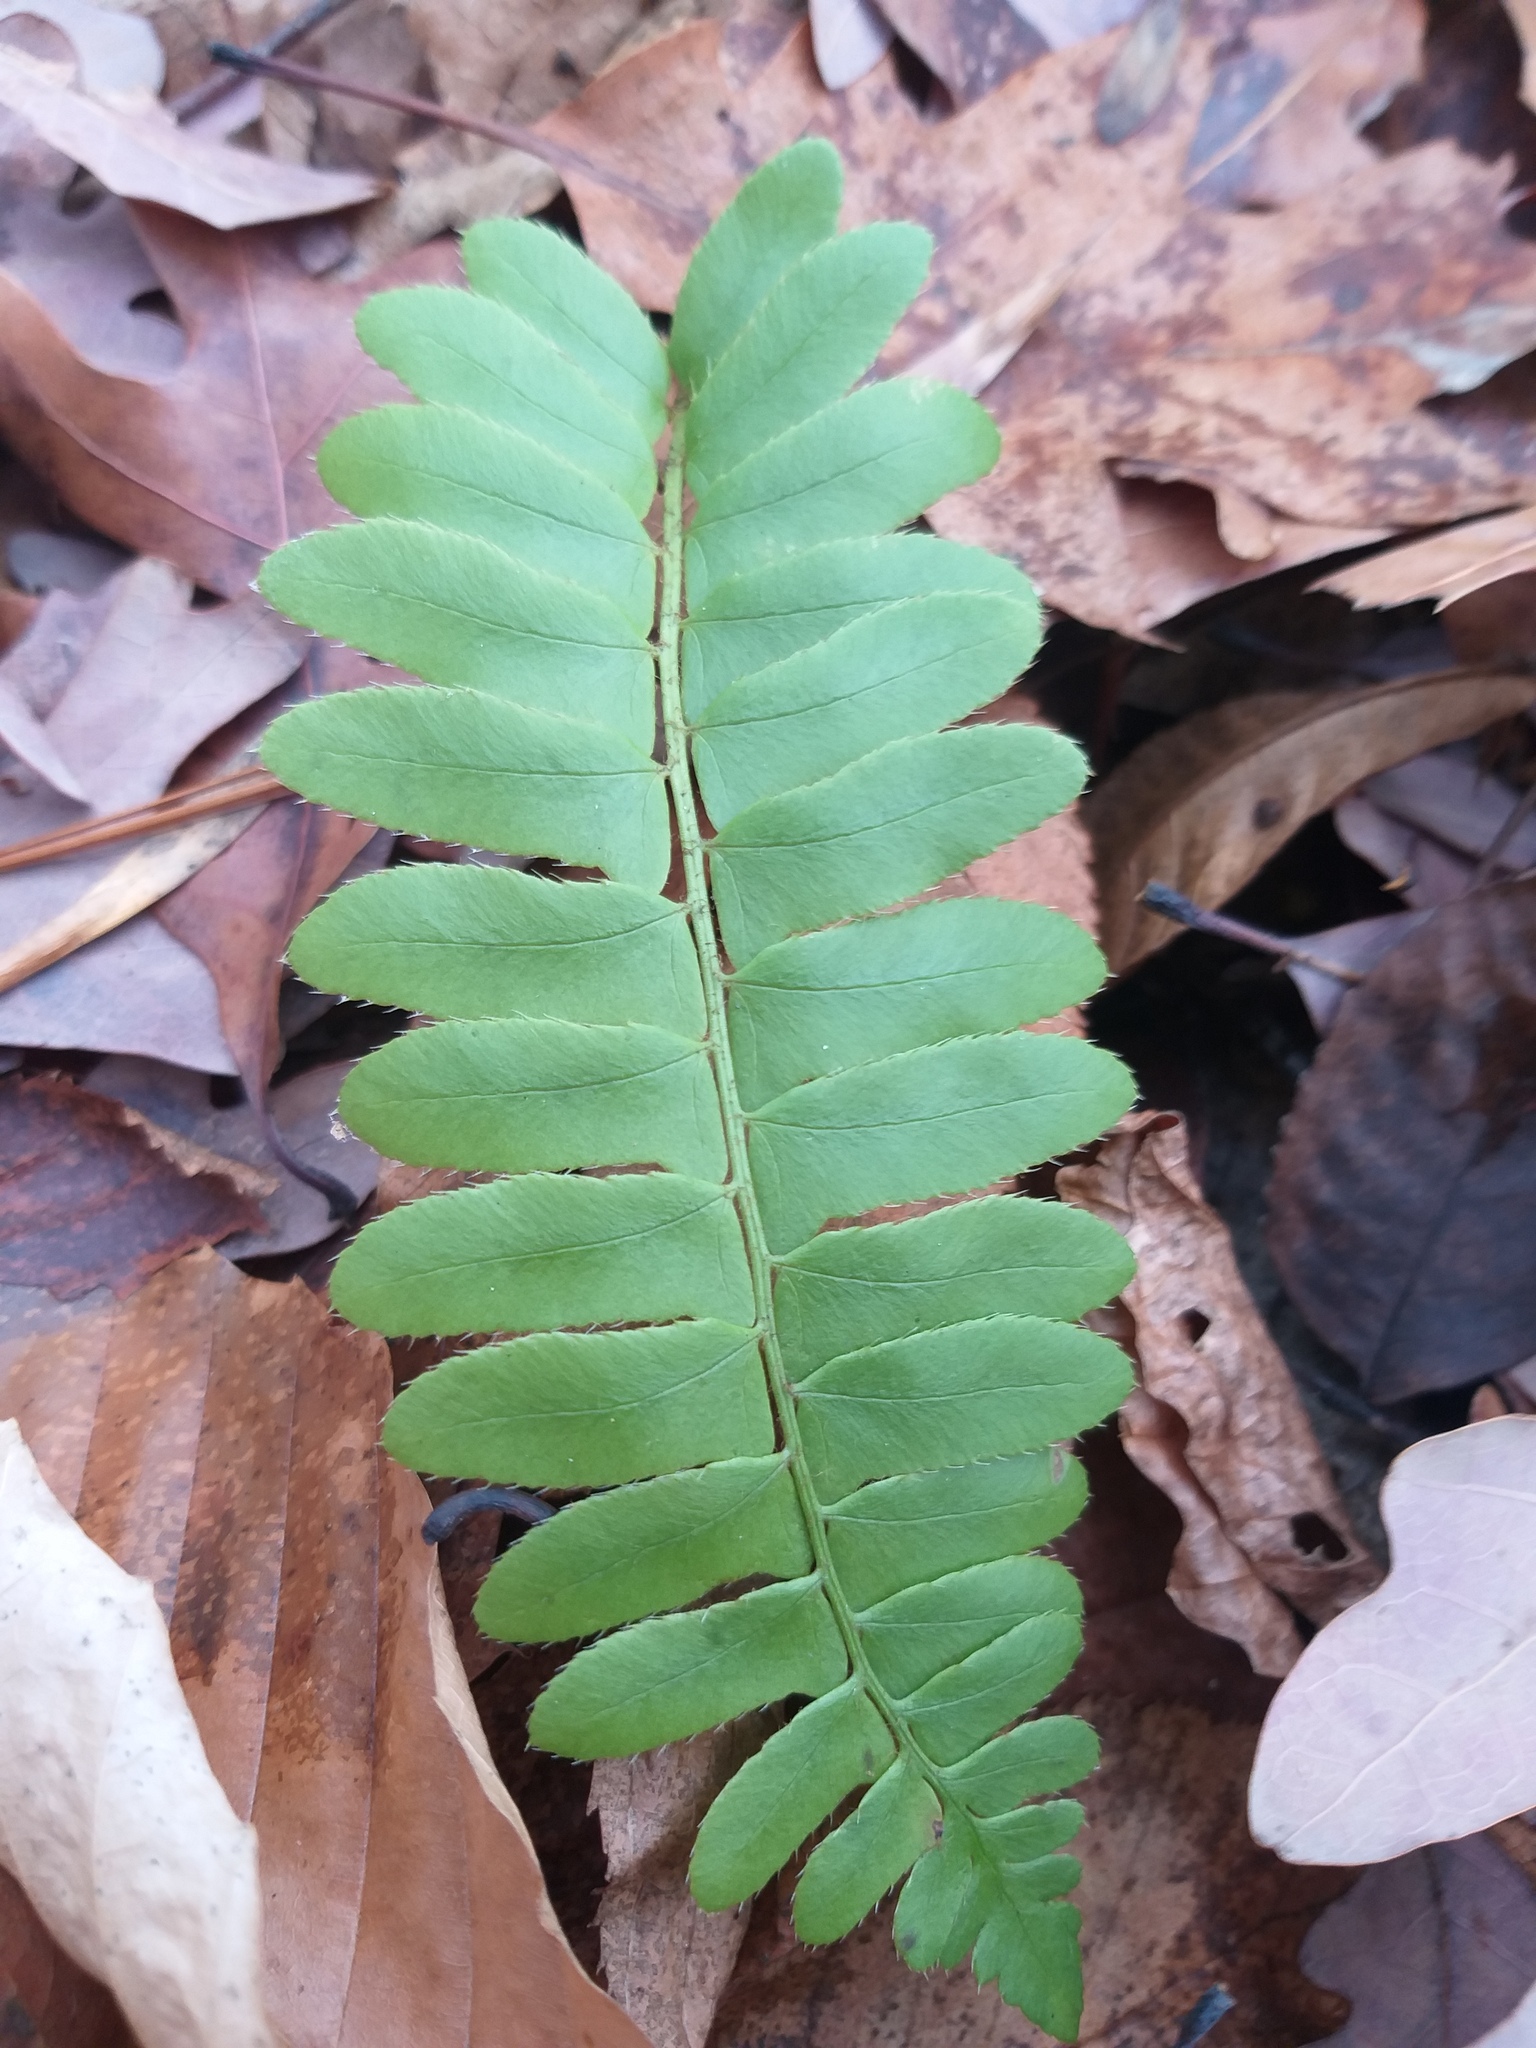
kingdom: Plantae
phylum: Tracheophyta
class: Polypodiopsida
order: Polypodiales
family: Dryopteridaceae
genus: Polystichum
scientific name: Polystichum acrostichoides
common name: Christmas fern
